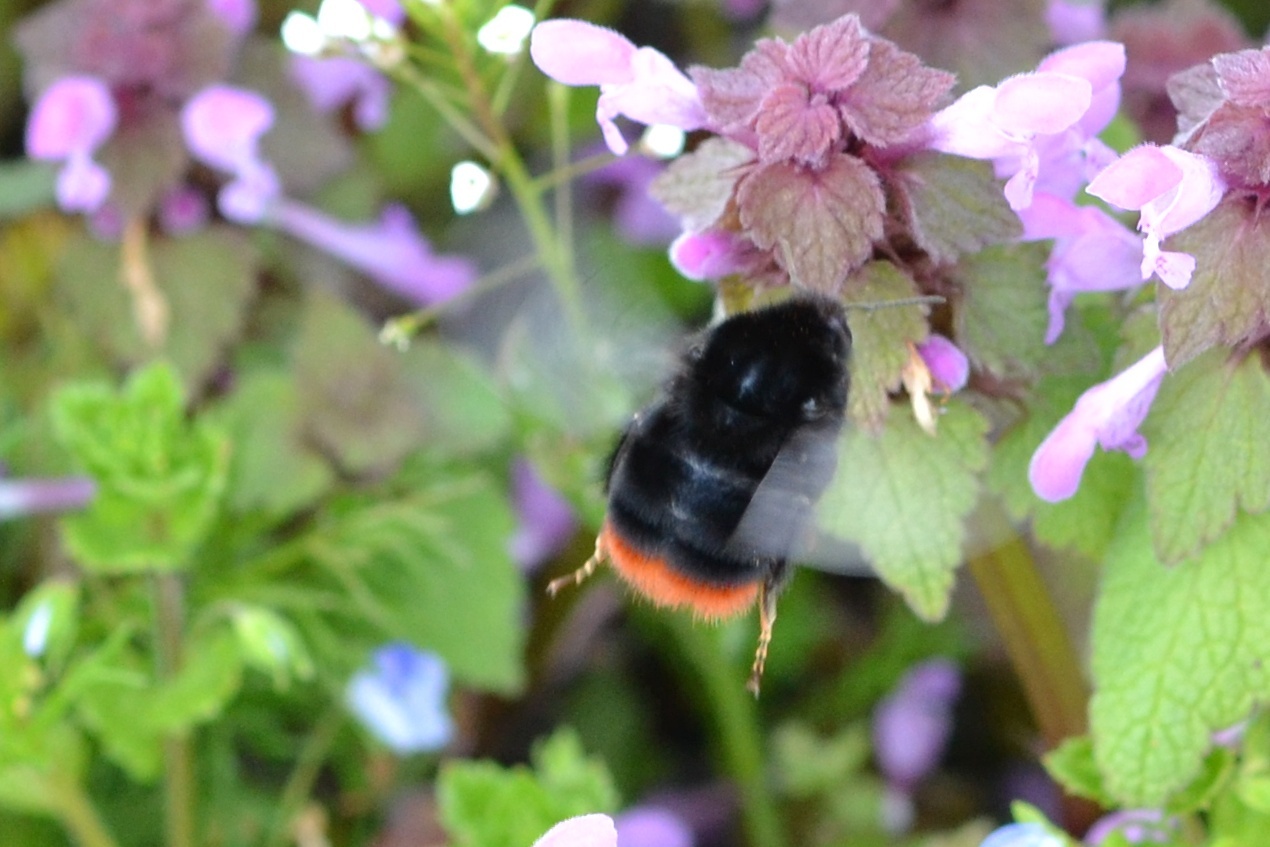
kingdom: Animalia
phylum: Arthropoda
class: Insecta
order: Hymenoptera
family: Apidae
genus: Bombus
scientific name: Bombus lapidarius
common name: Large red-tailed humble-bee
